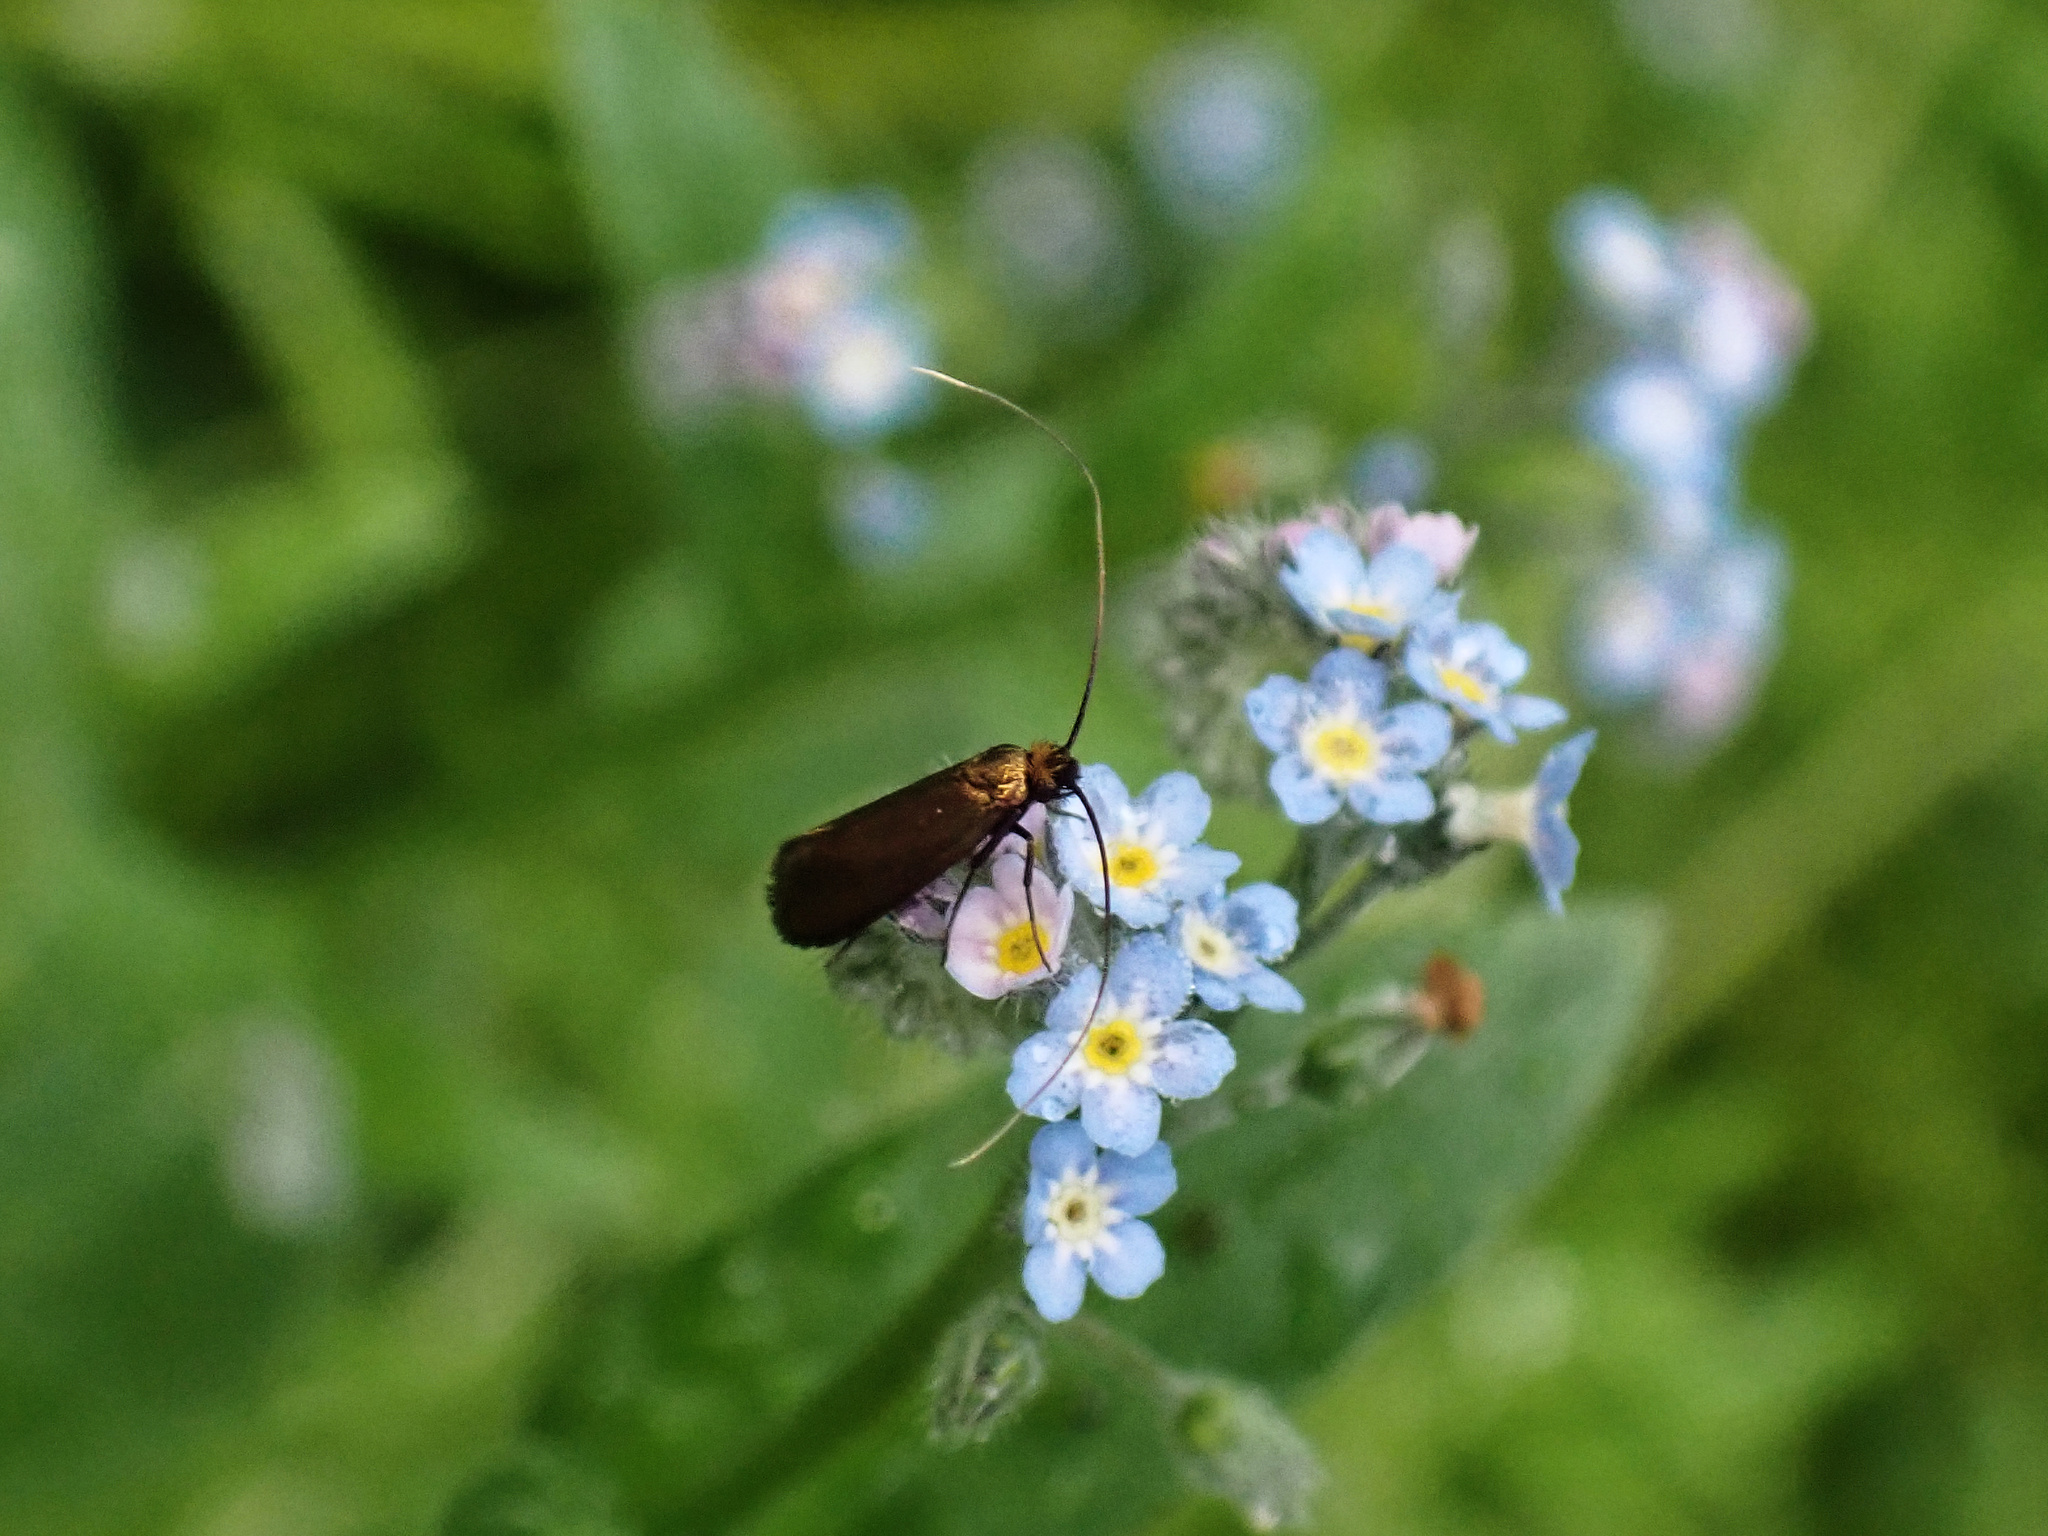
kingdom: Animalia
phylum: Arthropoda
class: Insecta
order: Lepidoptera
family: Adelidae
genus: Cauchas
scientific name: Cauchas rufimitrella
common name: Meadow long-horn
